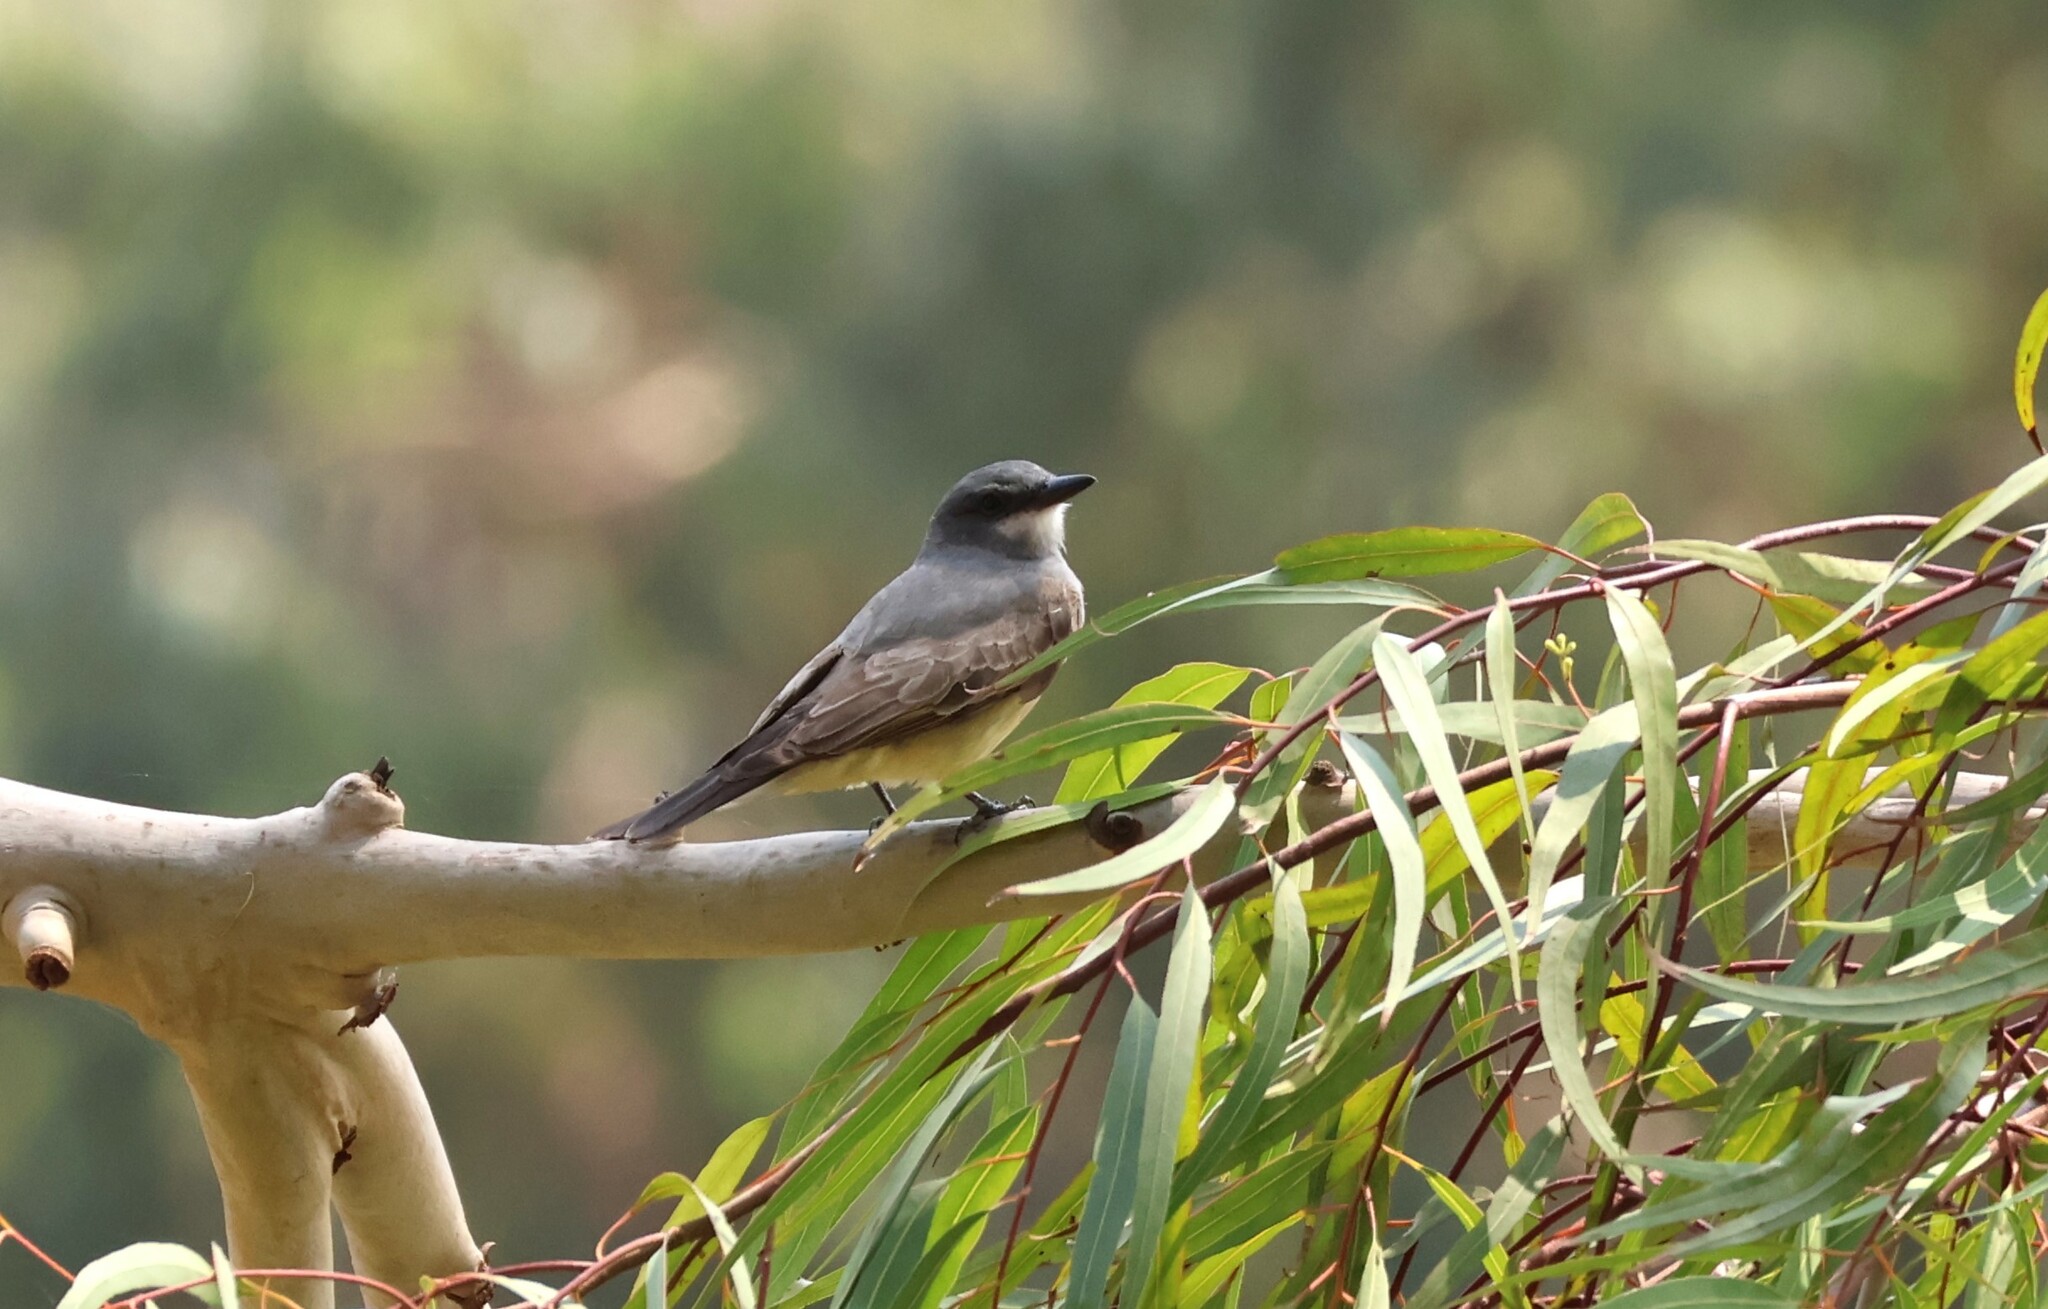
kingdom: Animalia
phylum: Chordata
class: Aves
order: Passeriformes
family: Tyrannidae
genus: Tyrannus
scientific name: Tyrannus vociferans
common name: Cassin's kingbird
